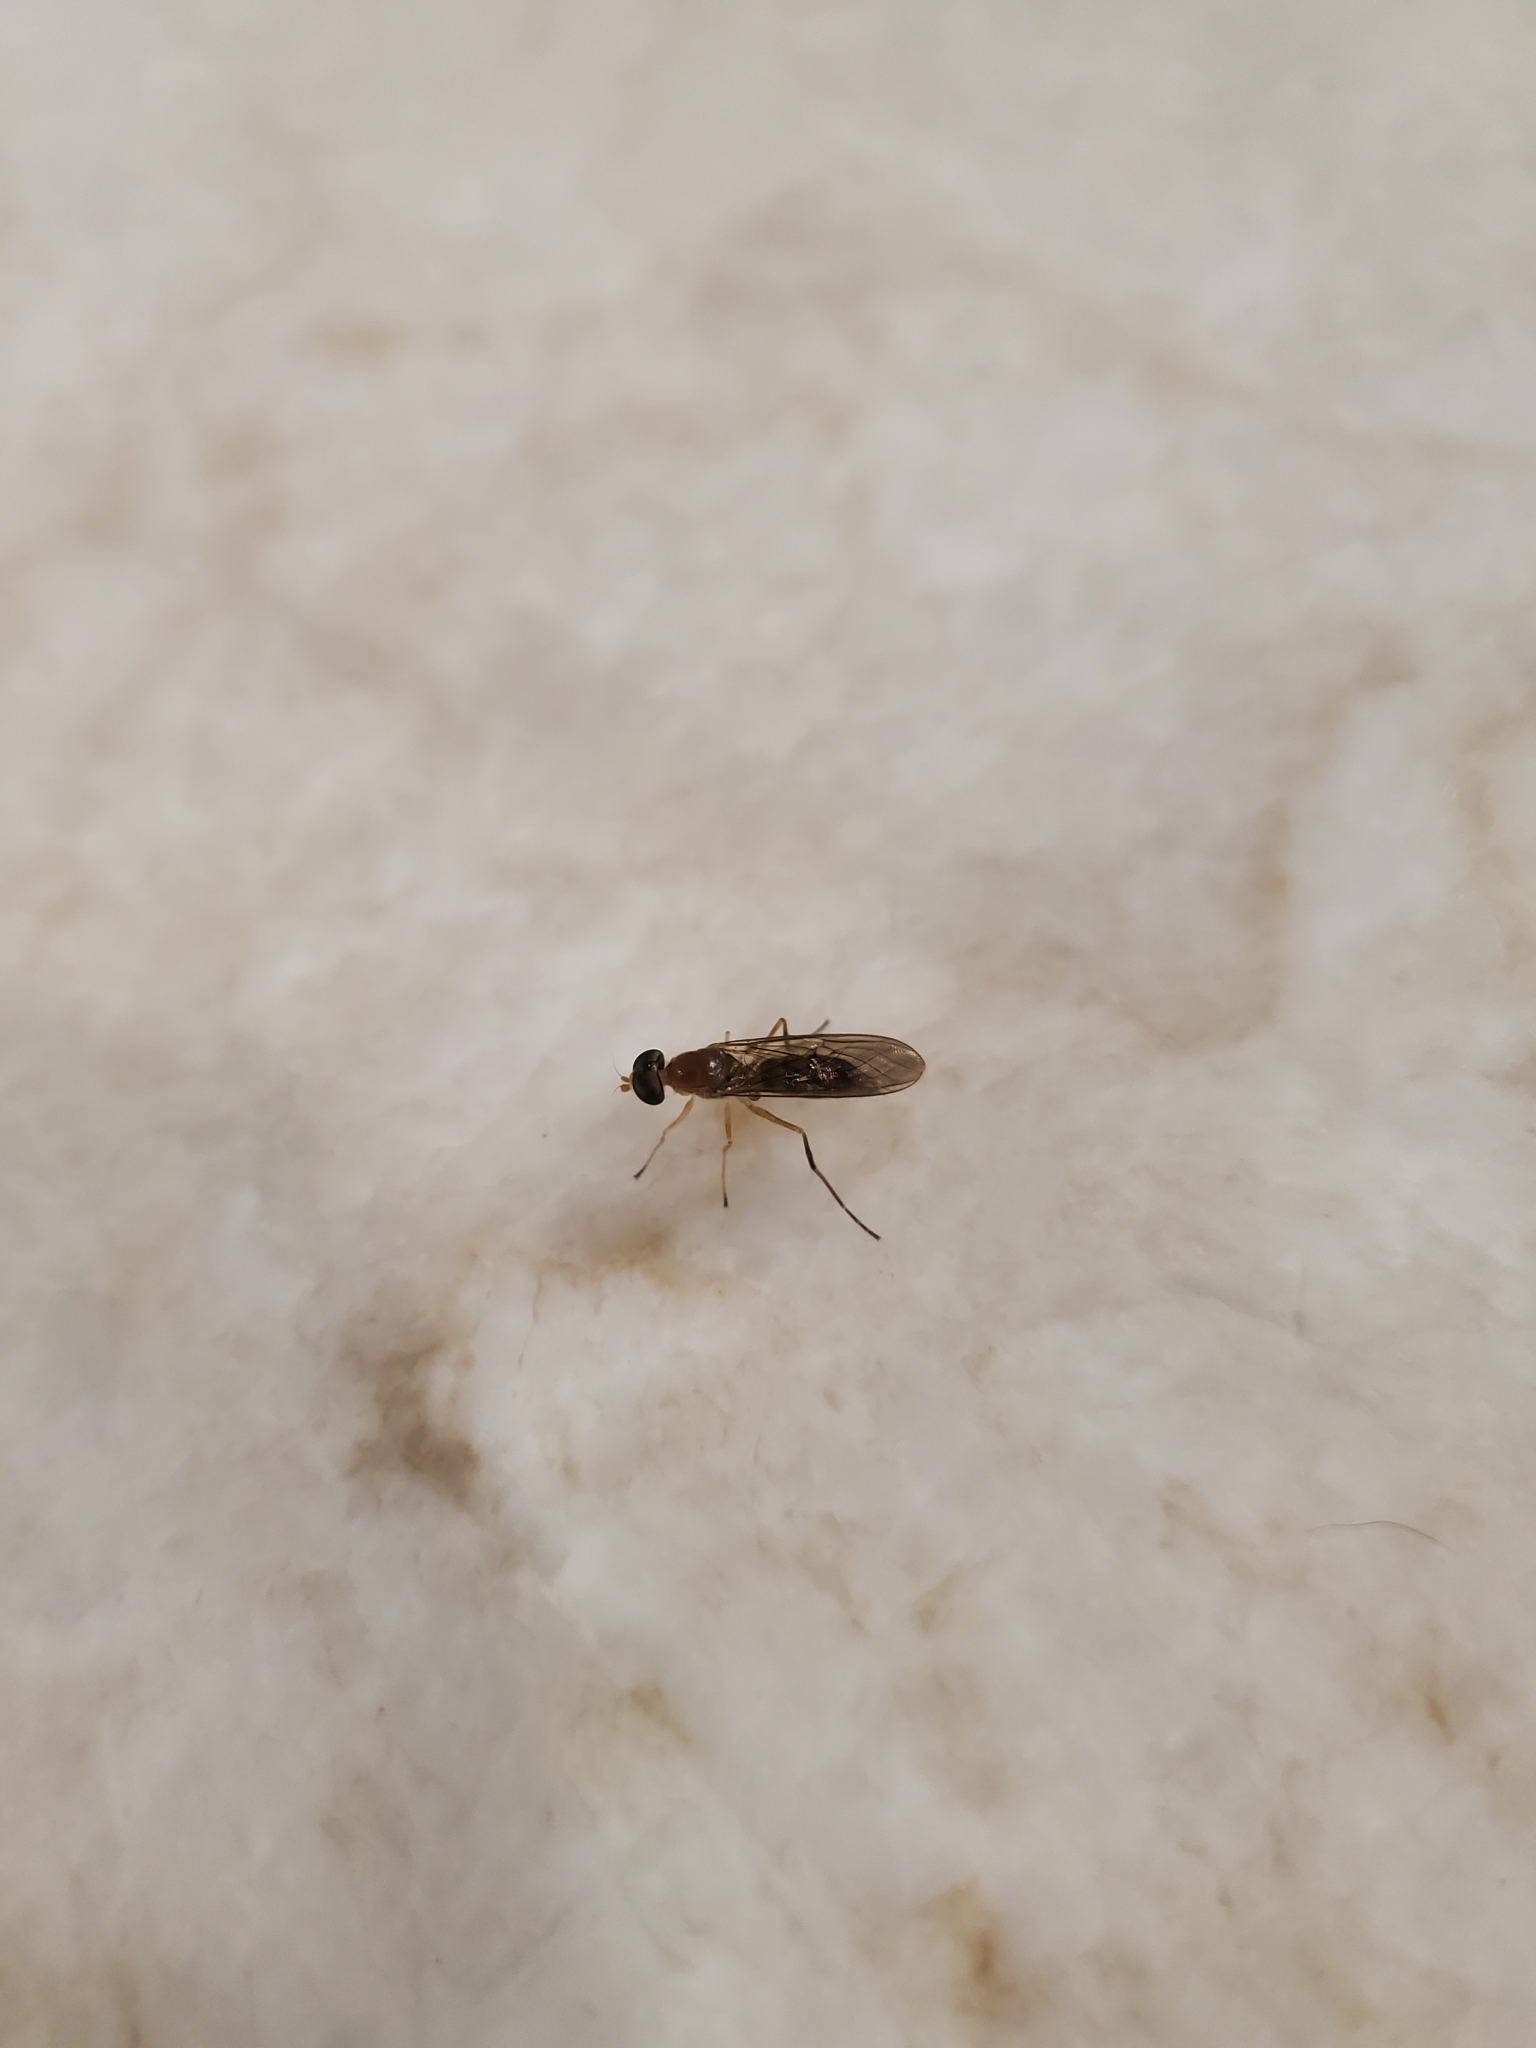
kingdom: Animalia
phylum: Arthropoda
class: Insecta
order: Diptera
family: Stratiomyidae
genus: Ptecticus
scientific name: Ptecticus trivittatus
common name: Compost fly
